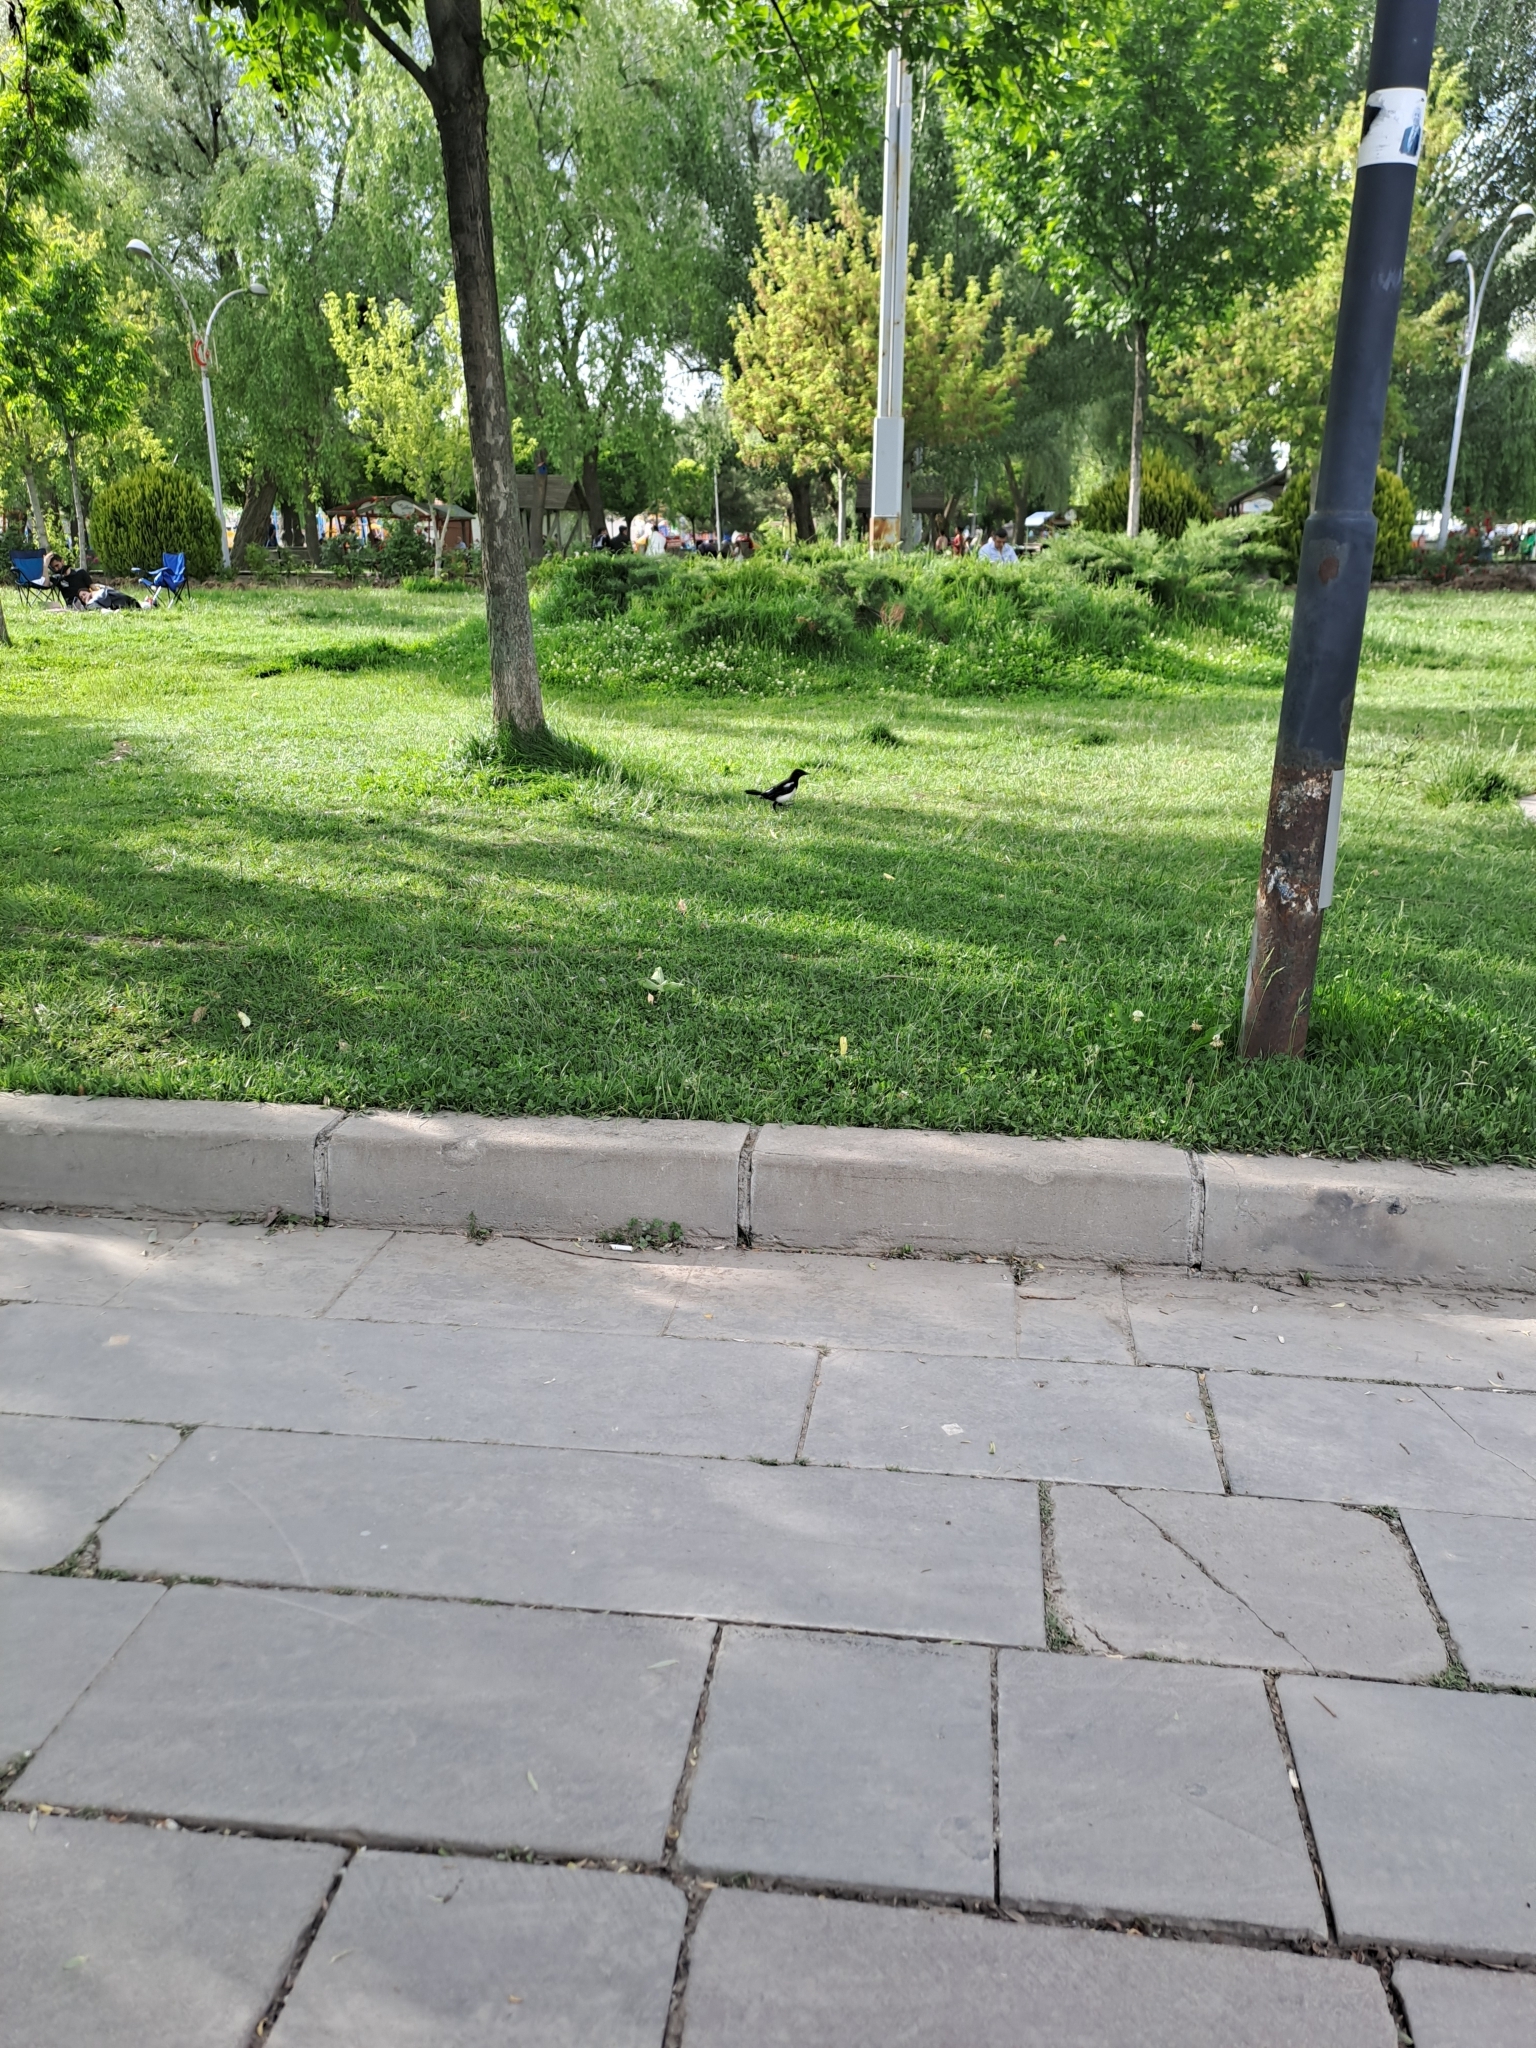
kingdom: Animalia
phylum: Chordata
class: Aves
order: Passeriformes
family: Corvidae
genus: Pica
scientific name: Pica pica
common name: Eurasian magpie
